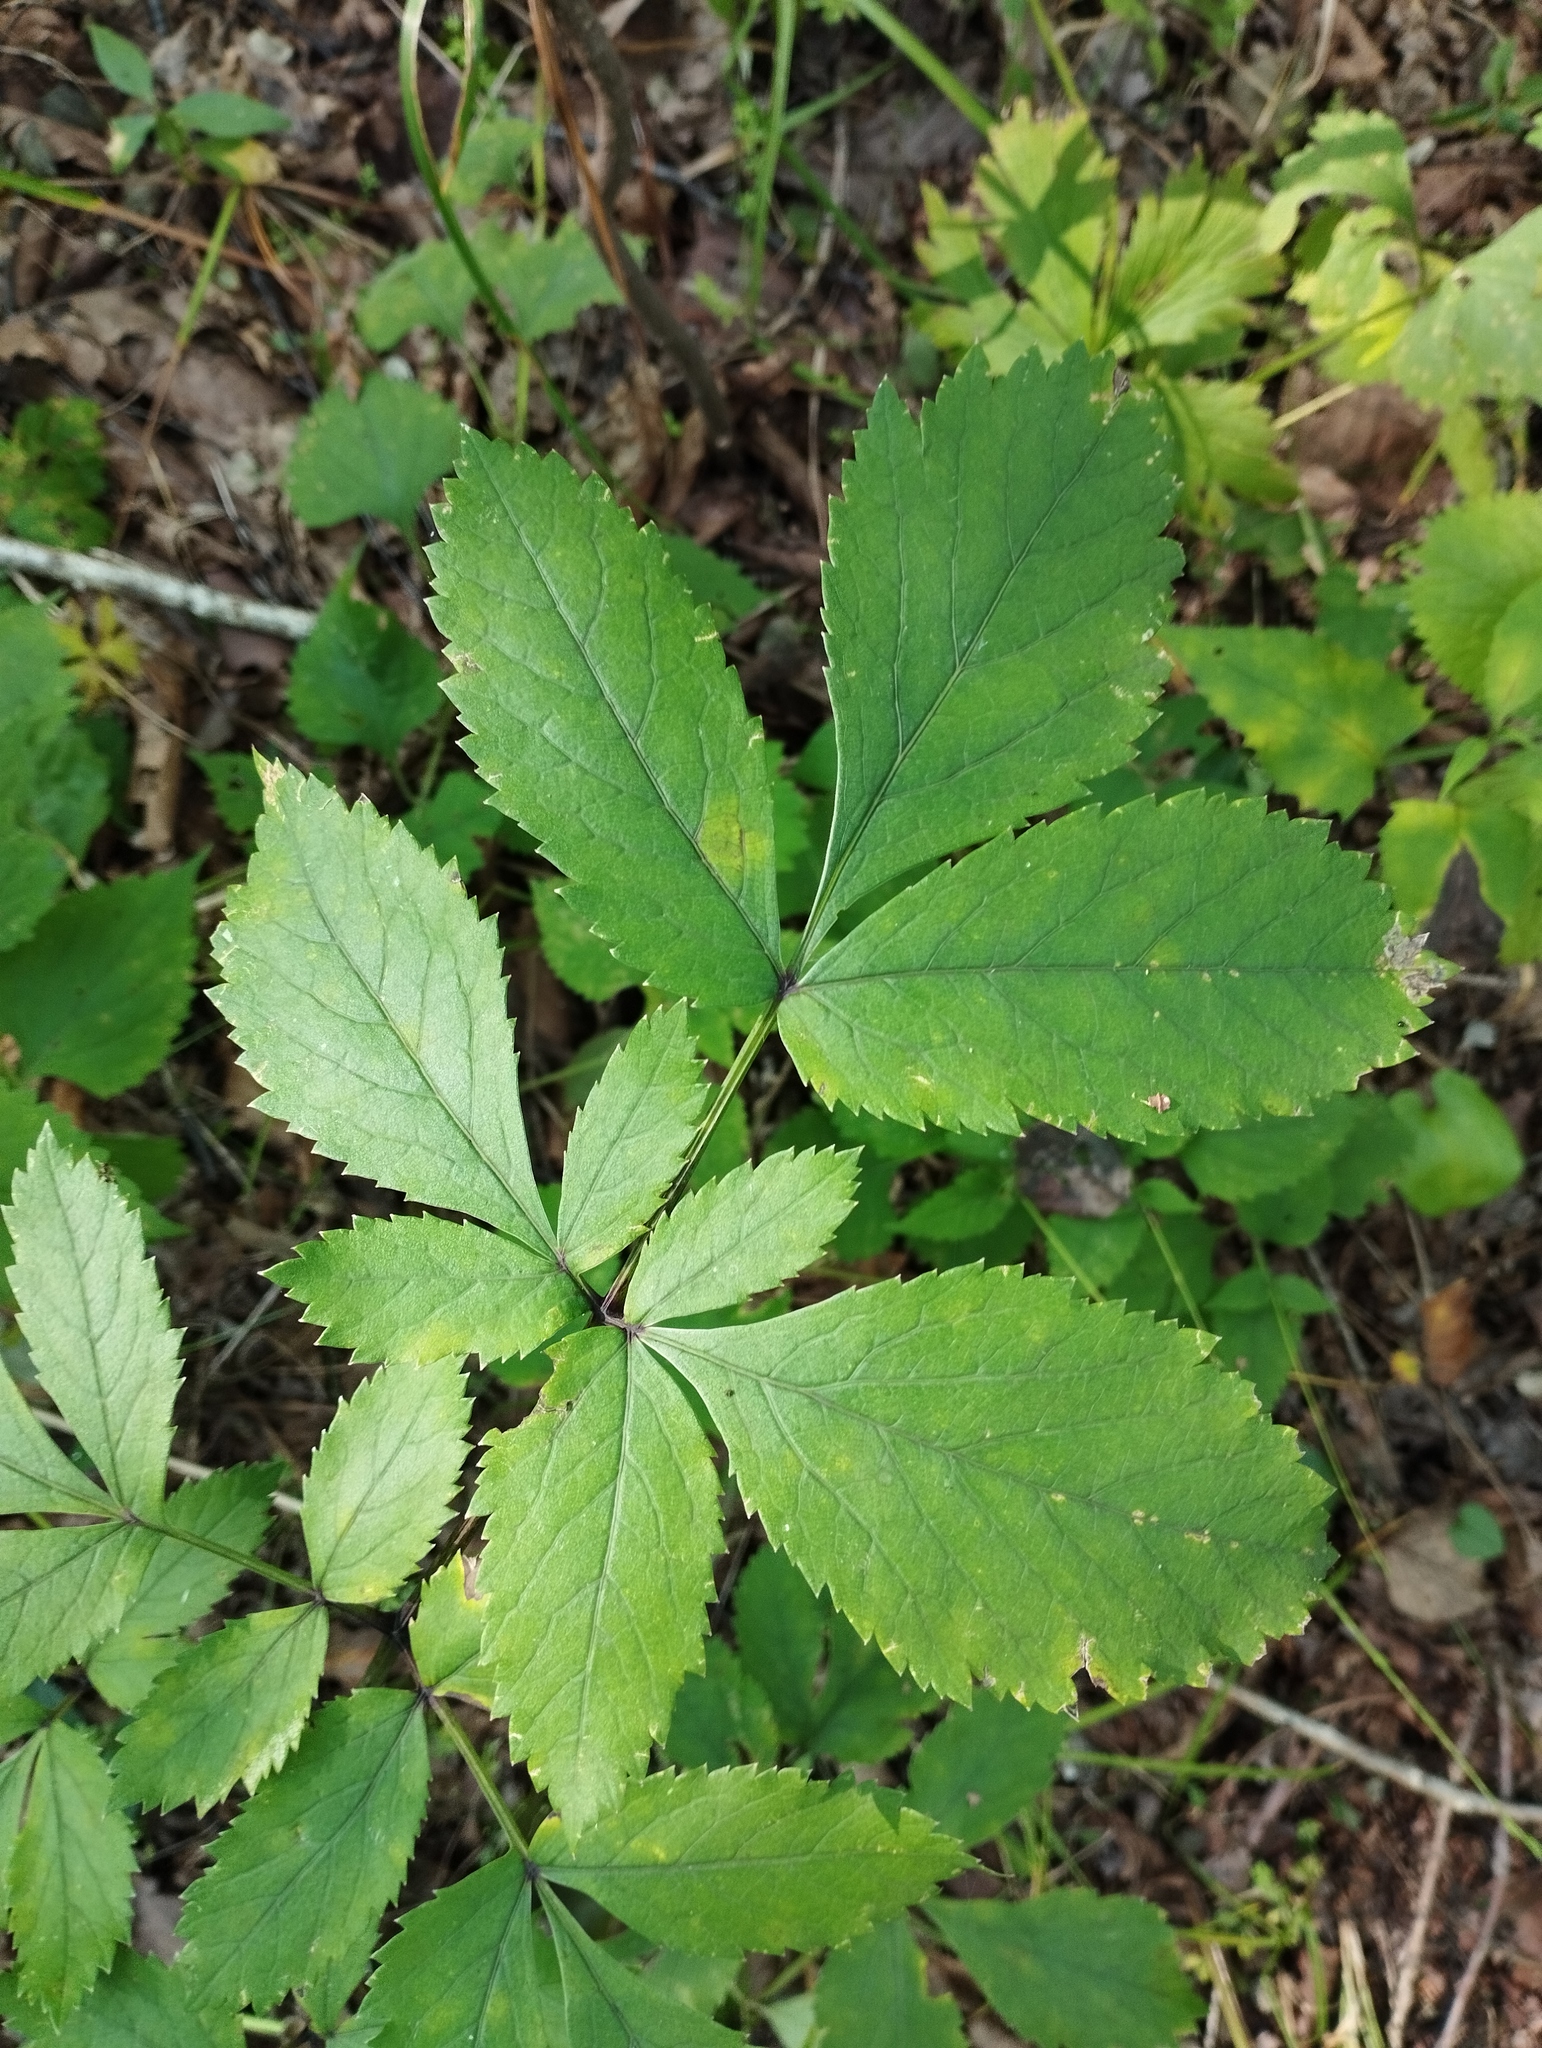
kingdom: Plantae
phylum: Tracheophyta
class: Magnoliopsida
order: Apiales
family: Apiaceae
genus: Angelica
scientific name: Angelica cincta
